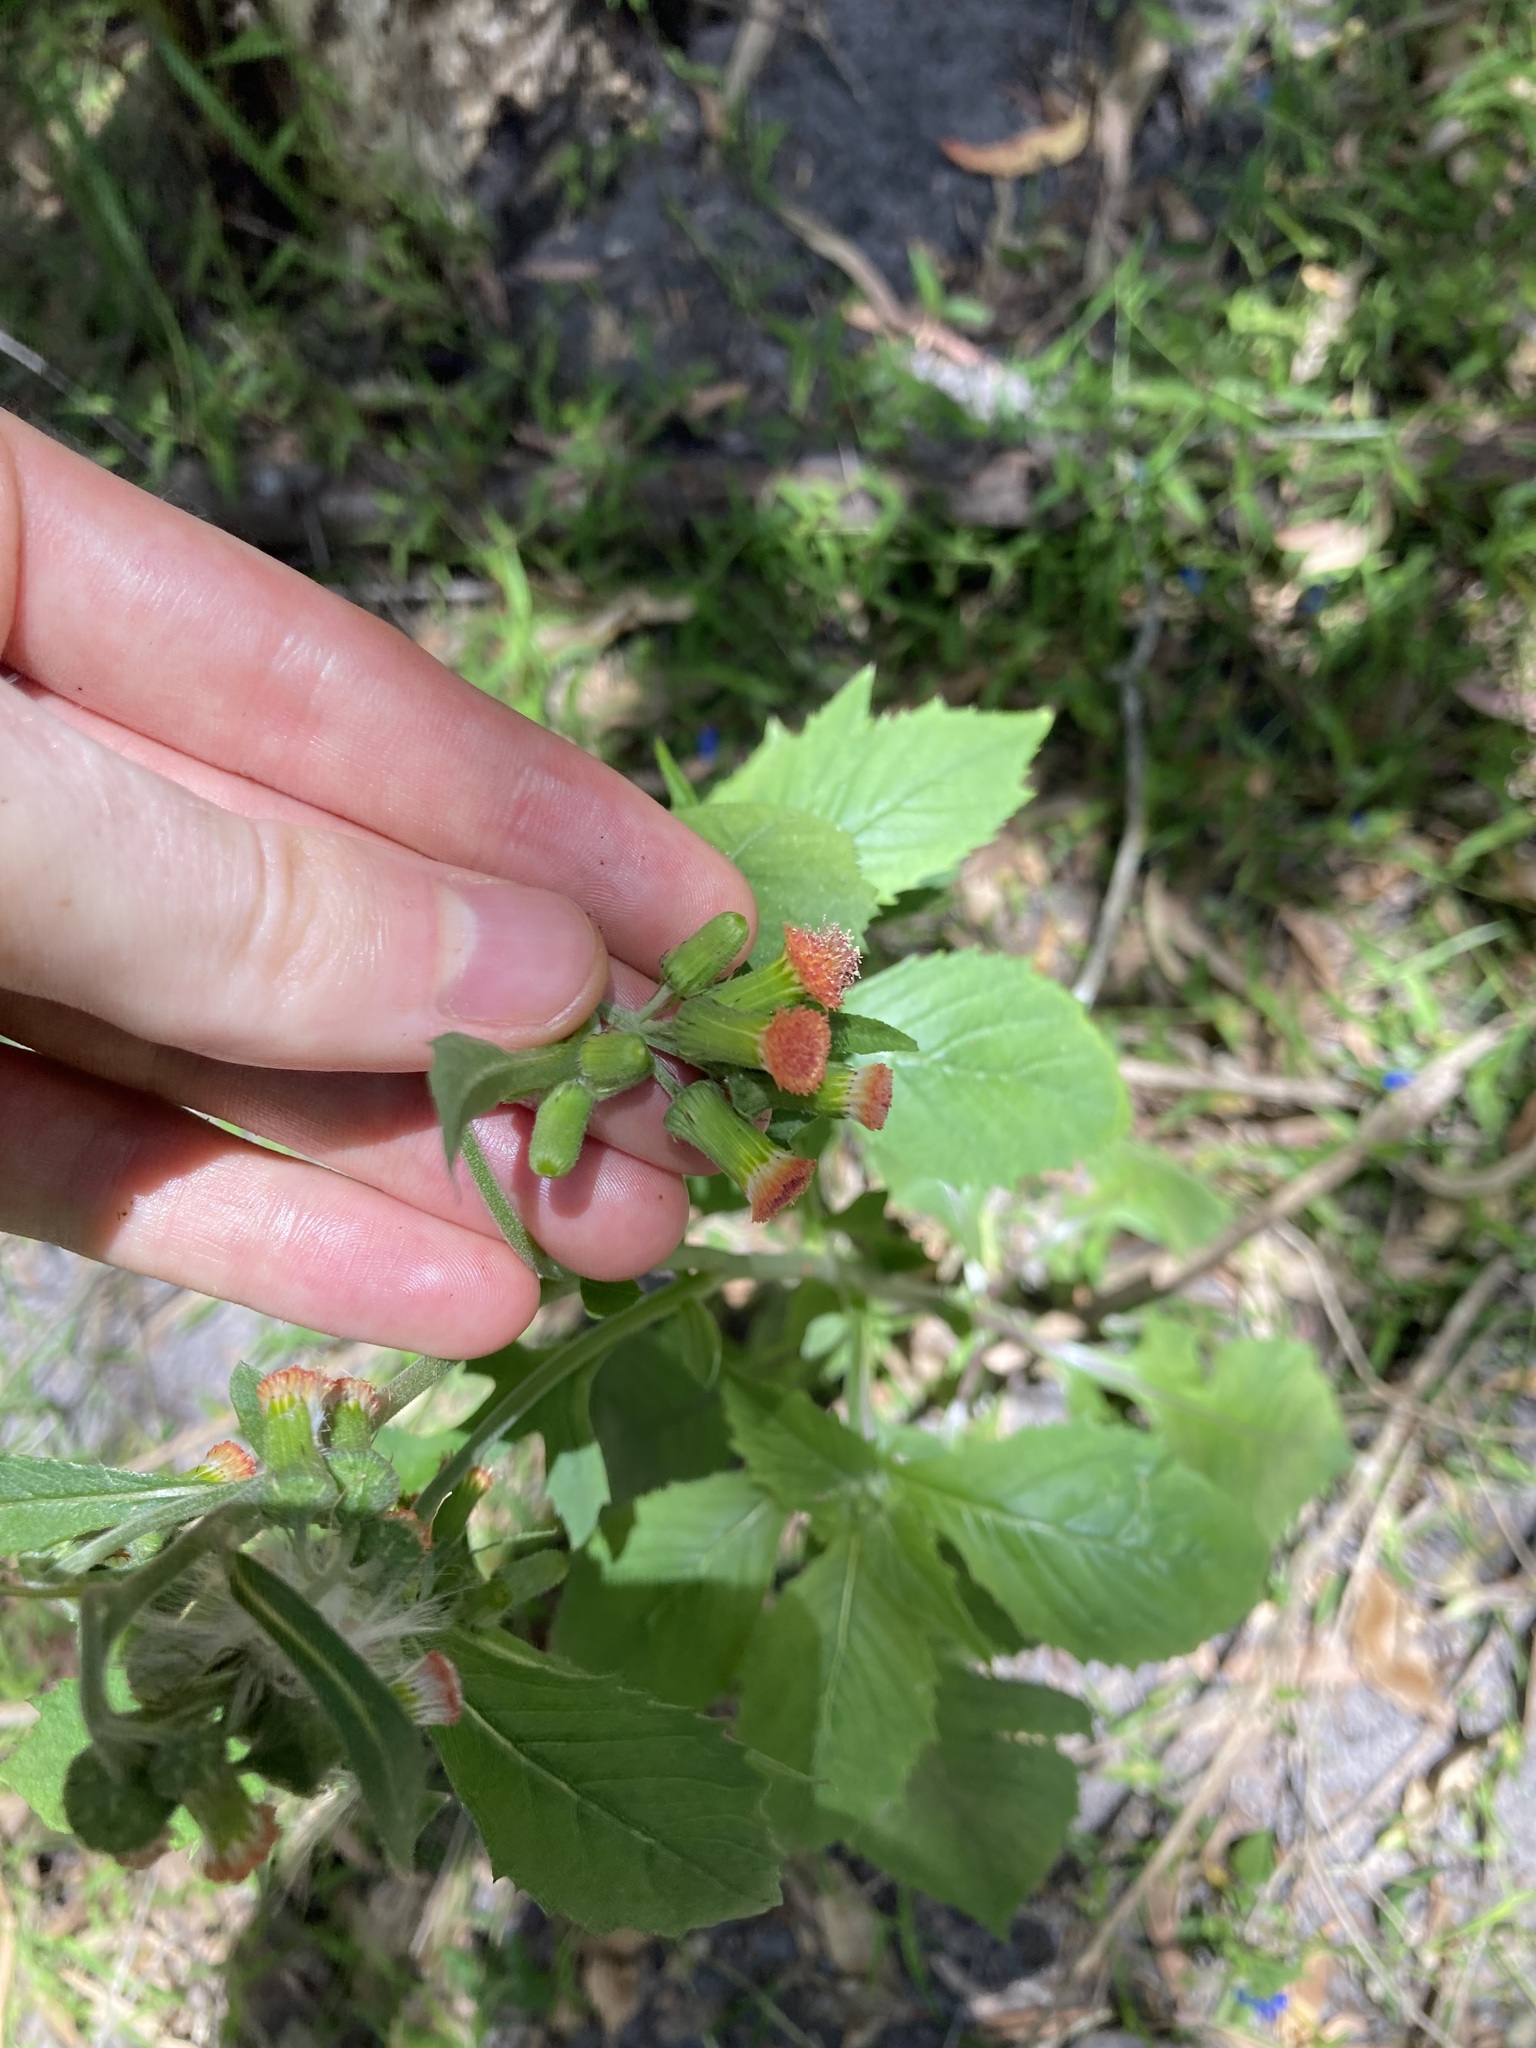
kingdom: Plantae
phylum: Tracheophyta
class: Magnoliopsida
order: Asterales
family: Asteraceae
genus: Crassocephalum
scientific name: Crassocephalum crepidioides
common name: Redflower ragleaf
